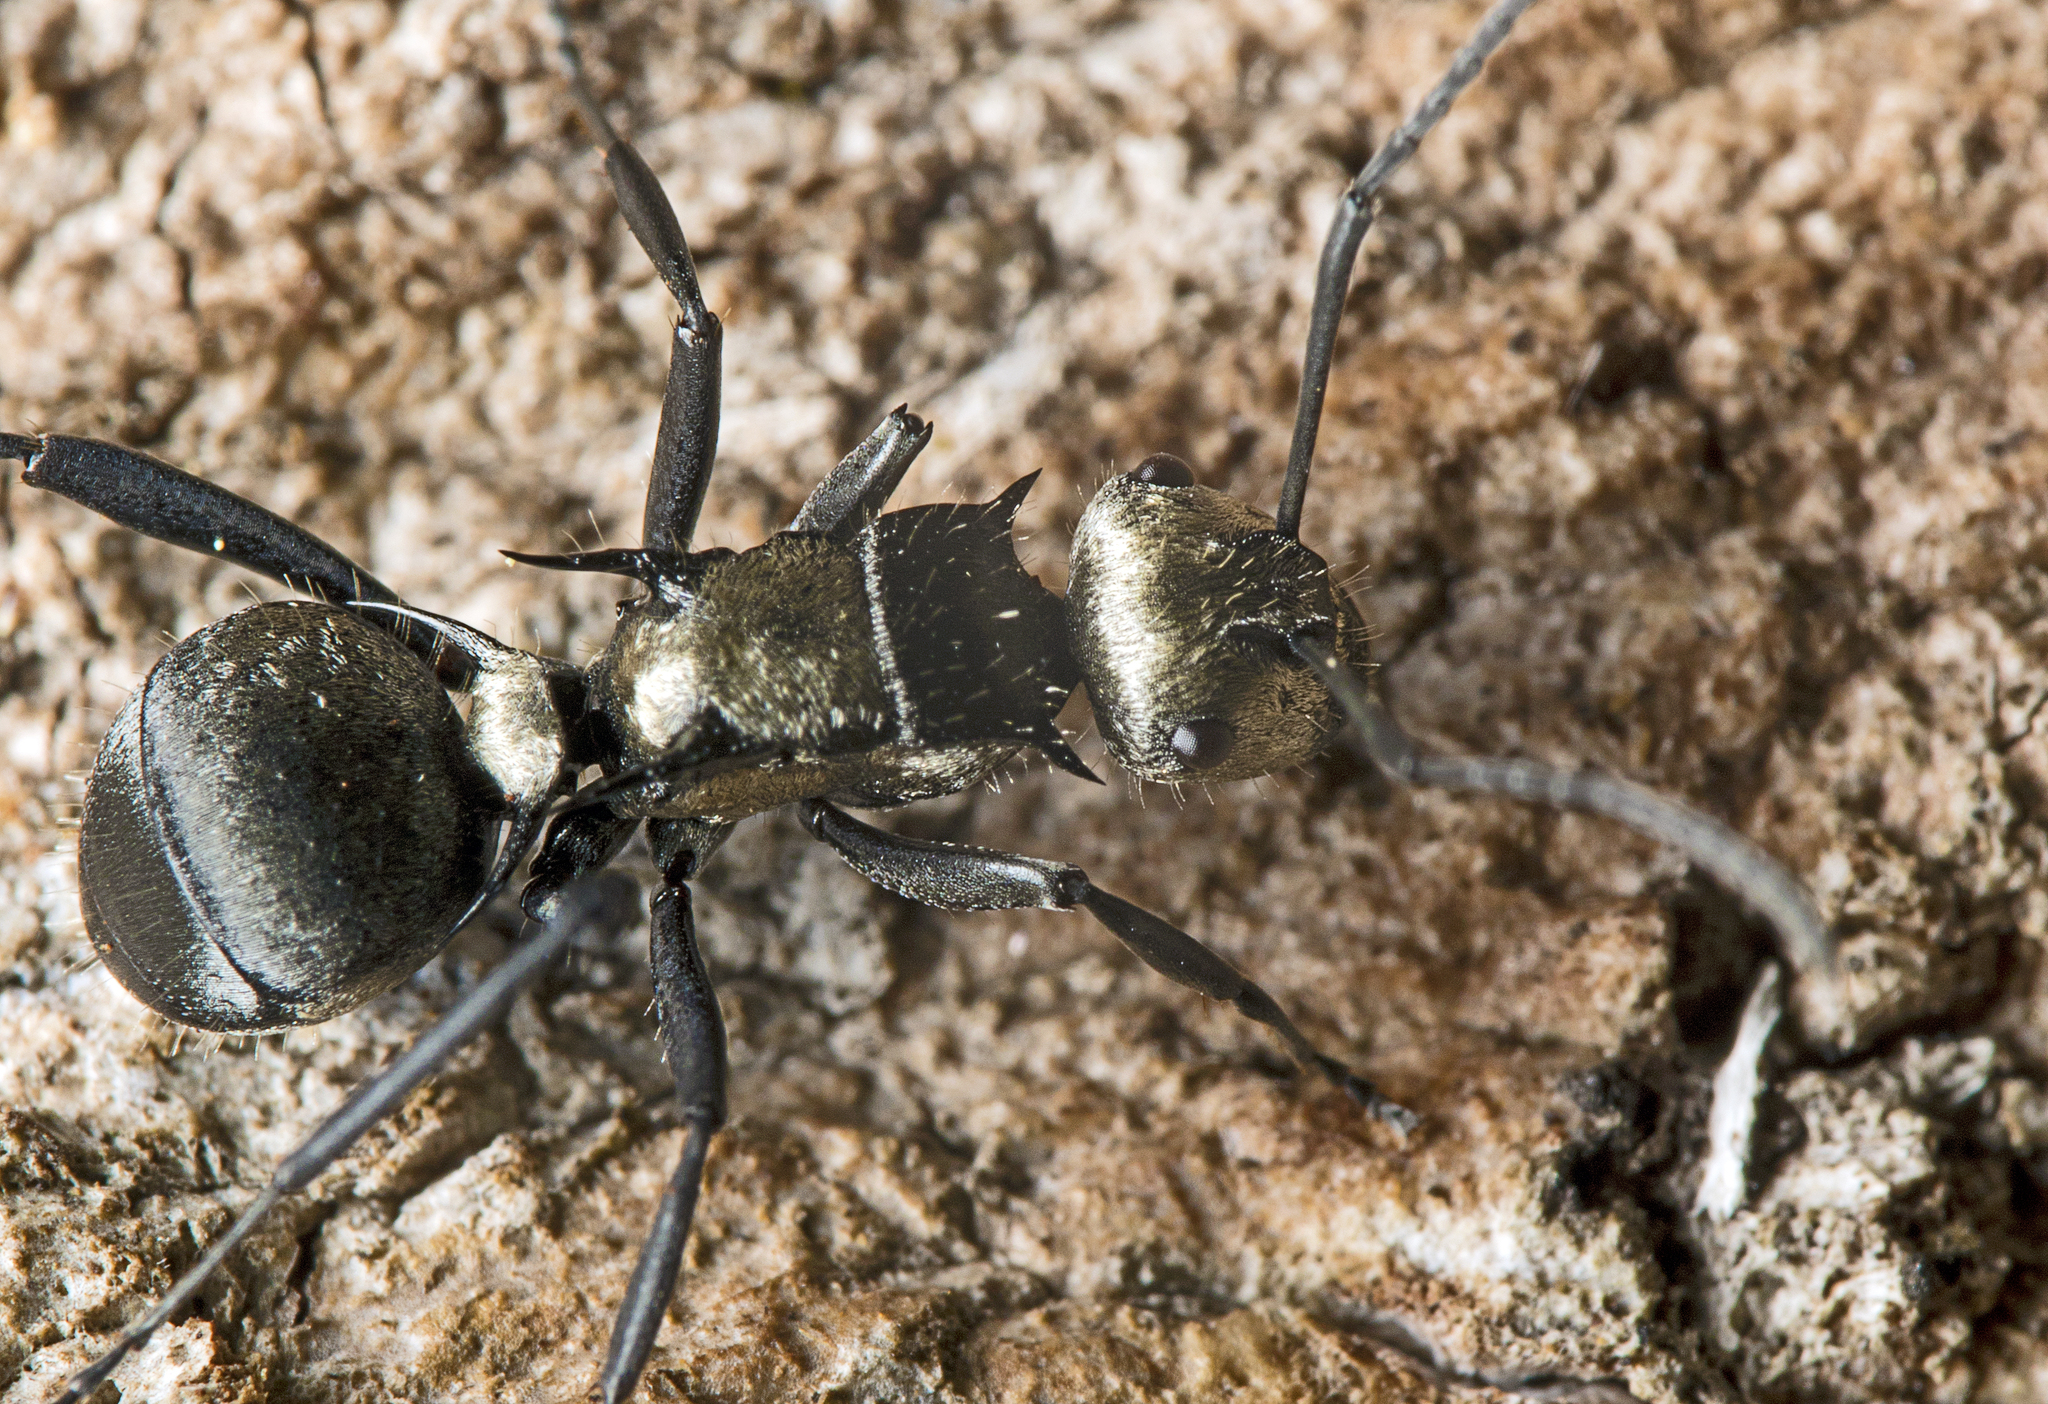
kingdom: Animalia
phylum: Arthropoda
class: Insecta
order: Hymenoptera
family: Formicidae
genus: Polyrhachis
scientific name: Polyrhachis daemeli
